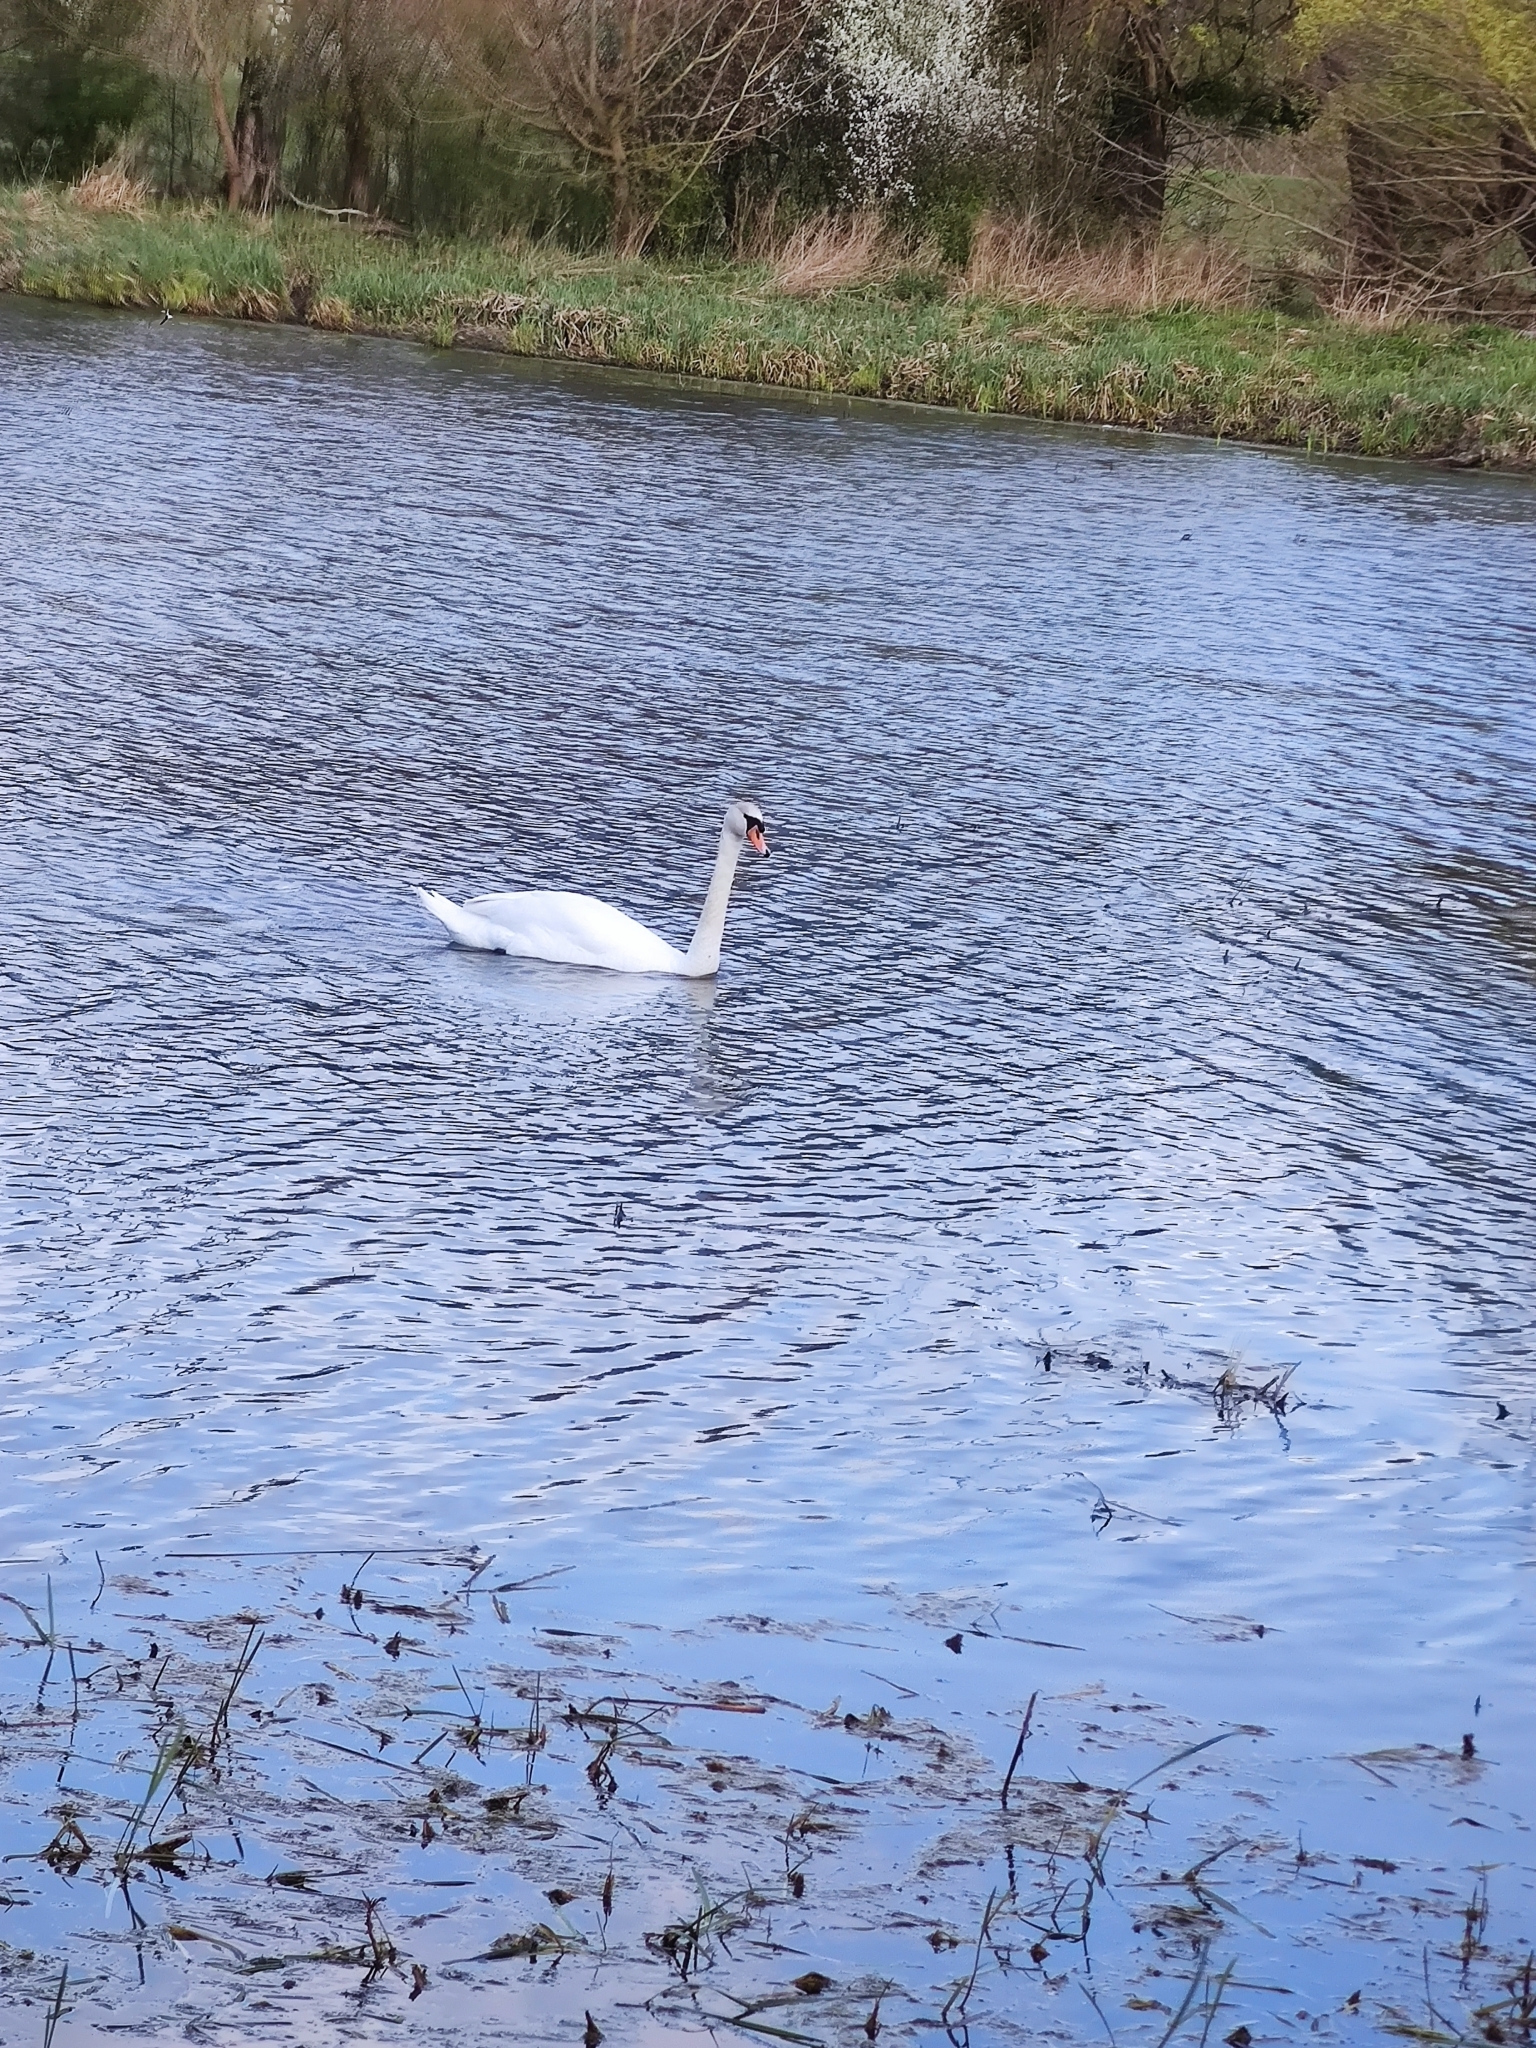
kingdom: Animalia
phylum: Chordata
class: Aves
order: Anseriformes
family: Anatidae
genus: Cygnus
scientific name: Cygnus olor
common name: Mute swan
